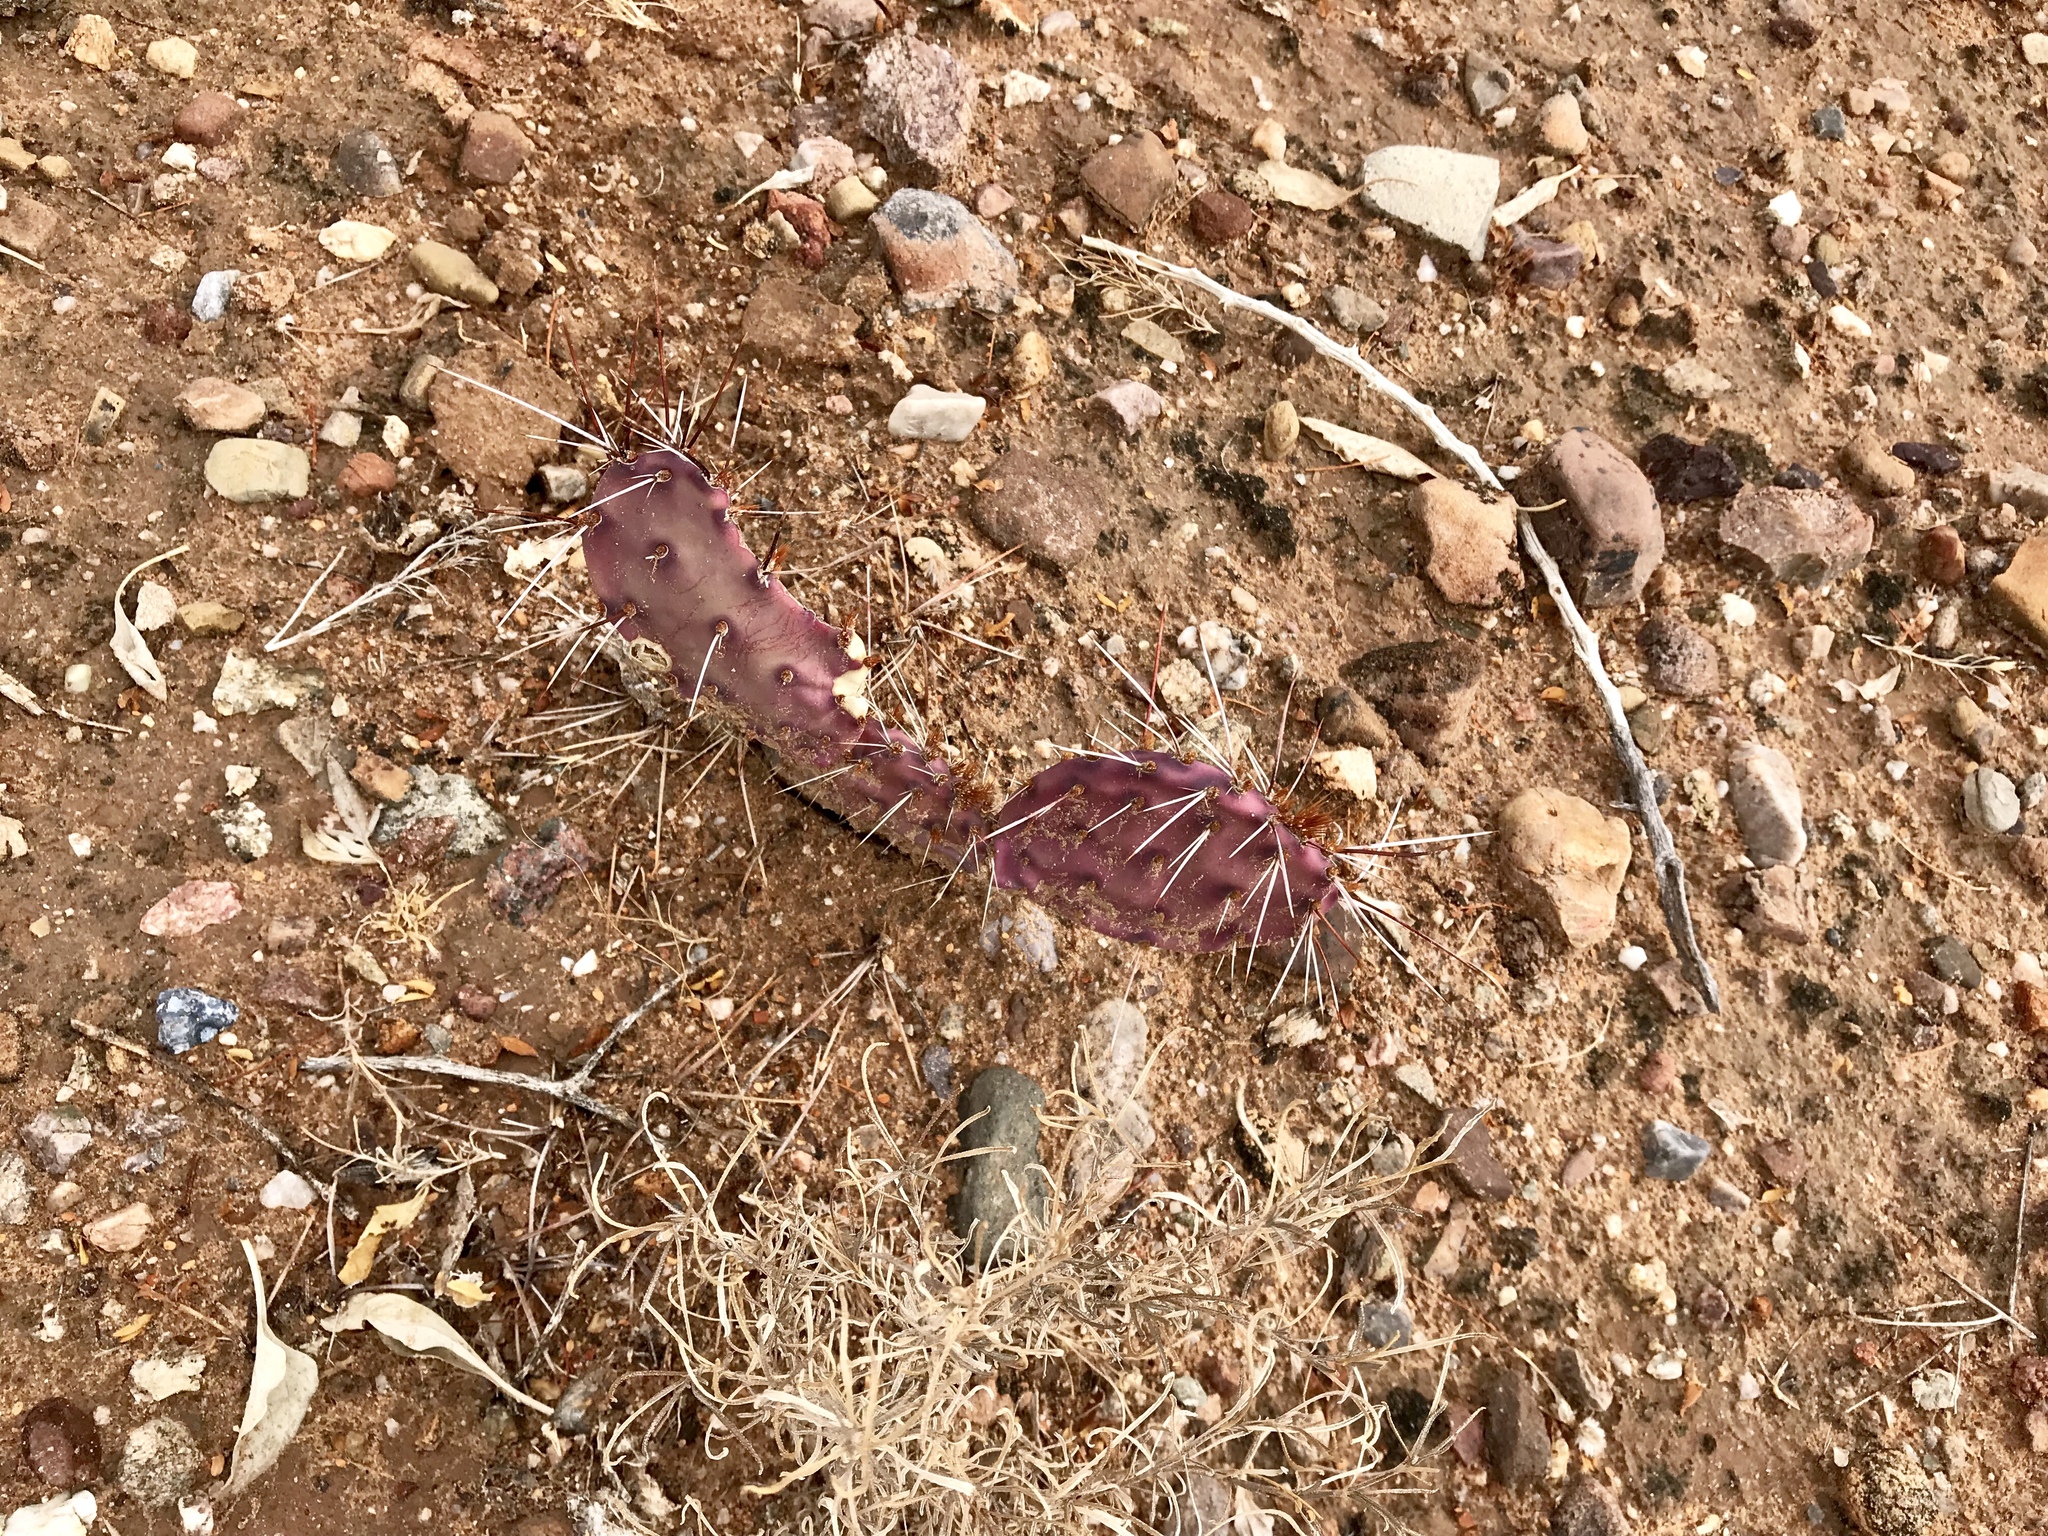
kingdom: Plantae
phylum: Tracheophyta
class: Magnoliopsida
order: Caryophyllales
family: Cactaceae
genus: Opuntia
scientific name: Opuntia macrocentra
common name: Purple prickly-pear
